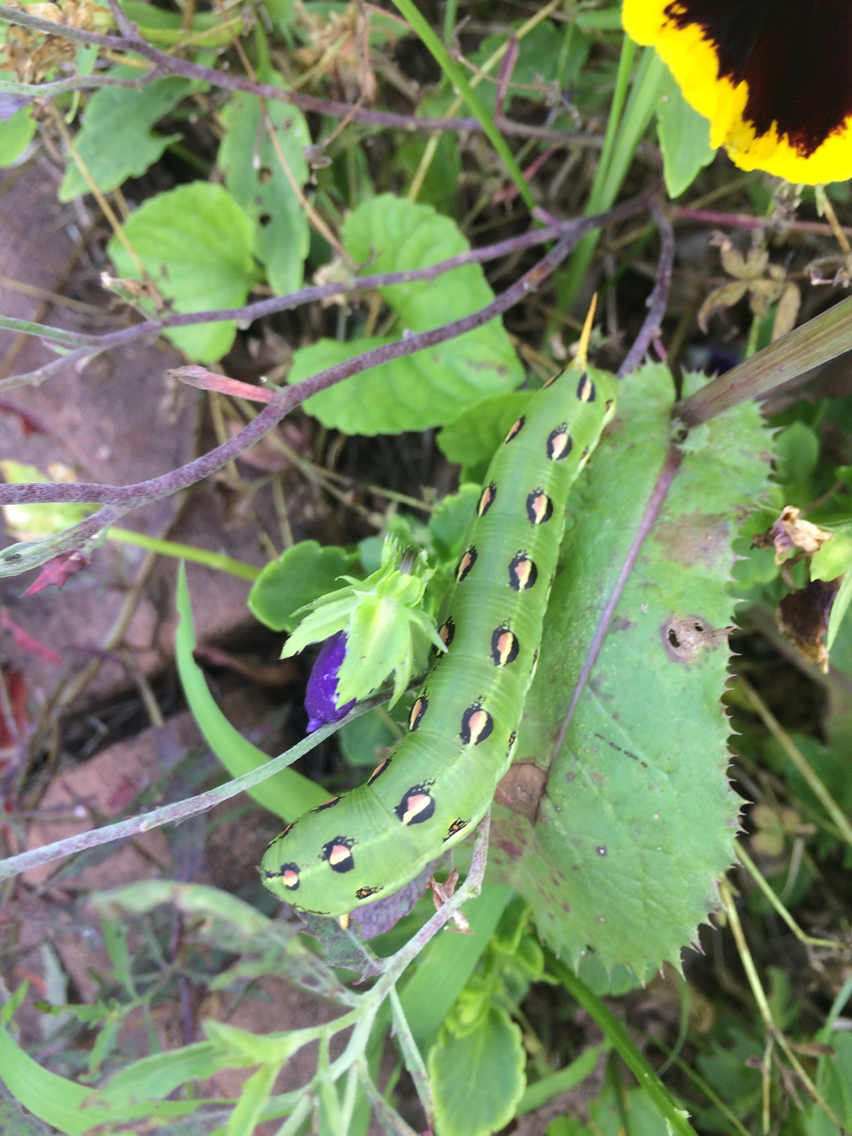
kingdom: Animalia
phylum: Arthropoda
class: Insecta
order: Lepidoptera
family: Sphingidae
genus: Hyles
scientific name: Hyles lineata
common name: White-lined sphinx
